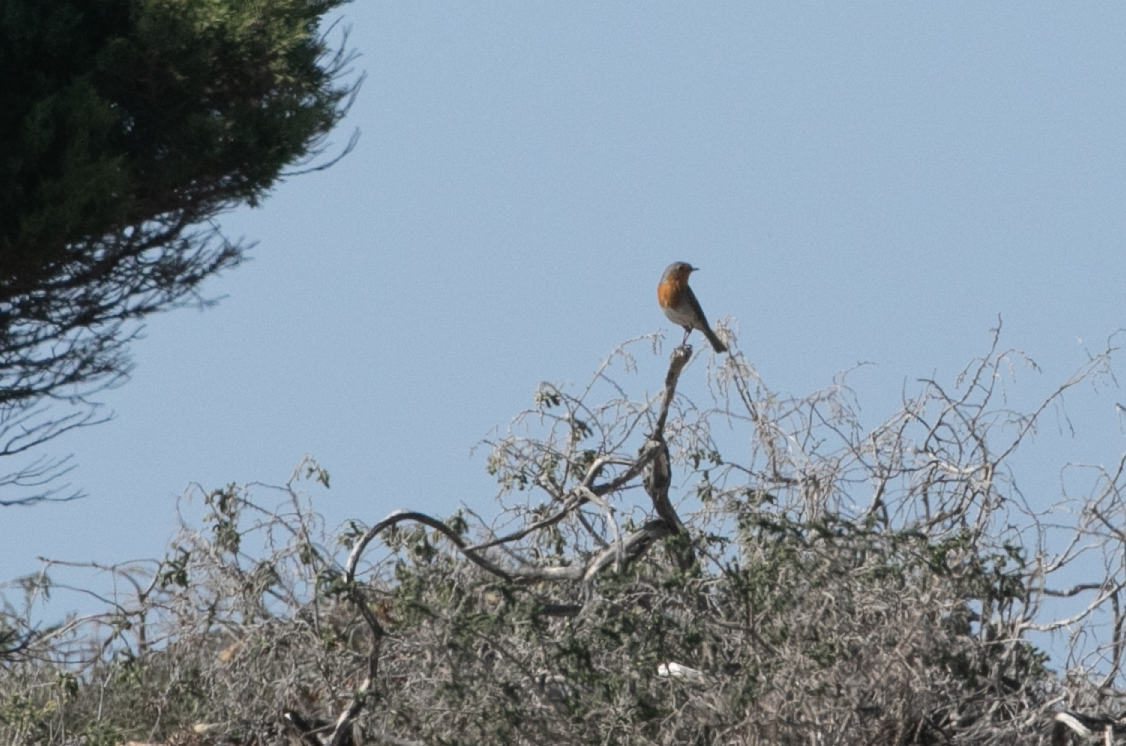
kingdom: Animalia
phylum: Chordata
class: Aves
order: Passeriformes
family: Muscicapidae
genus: Erithacus
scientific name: Erithacus rubecula
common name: European robin
